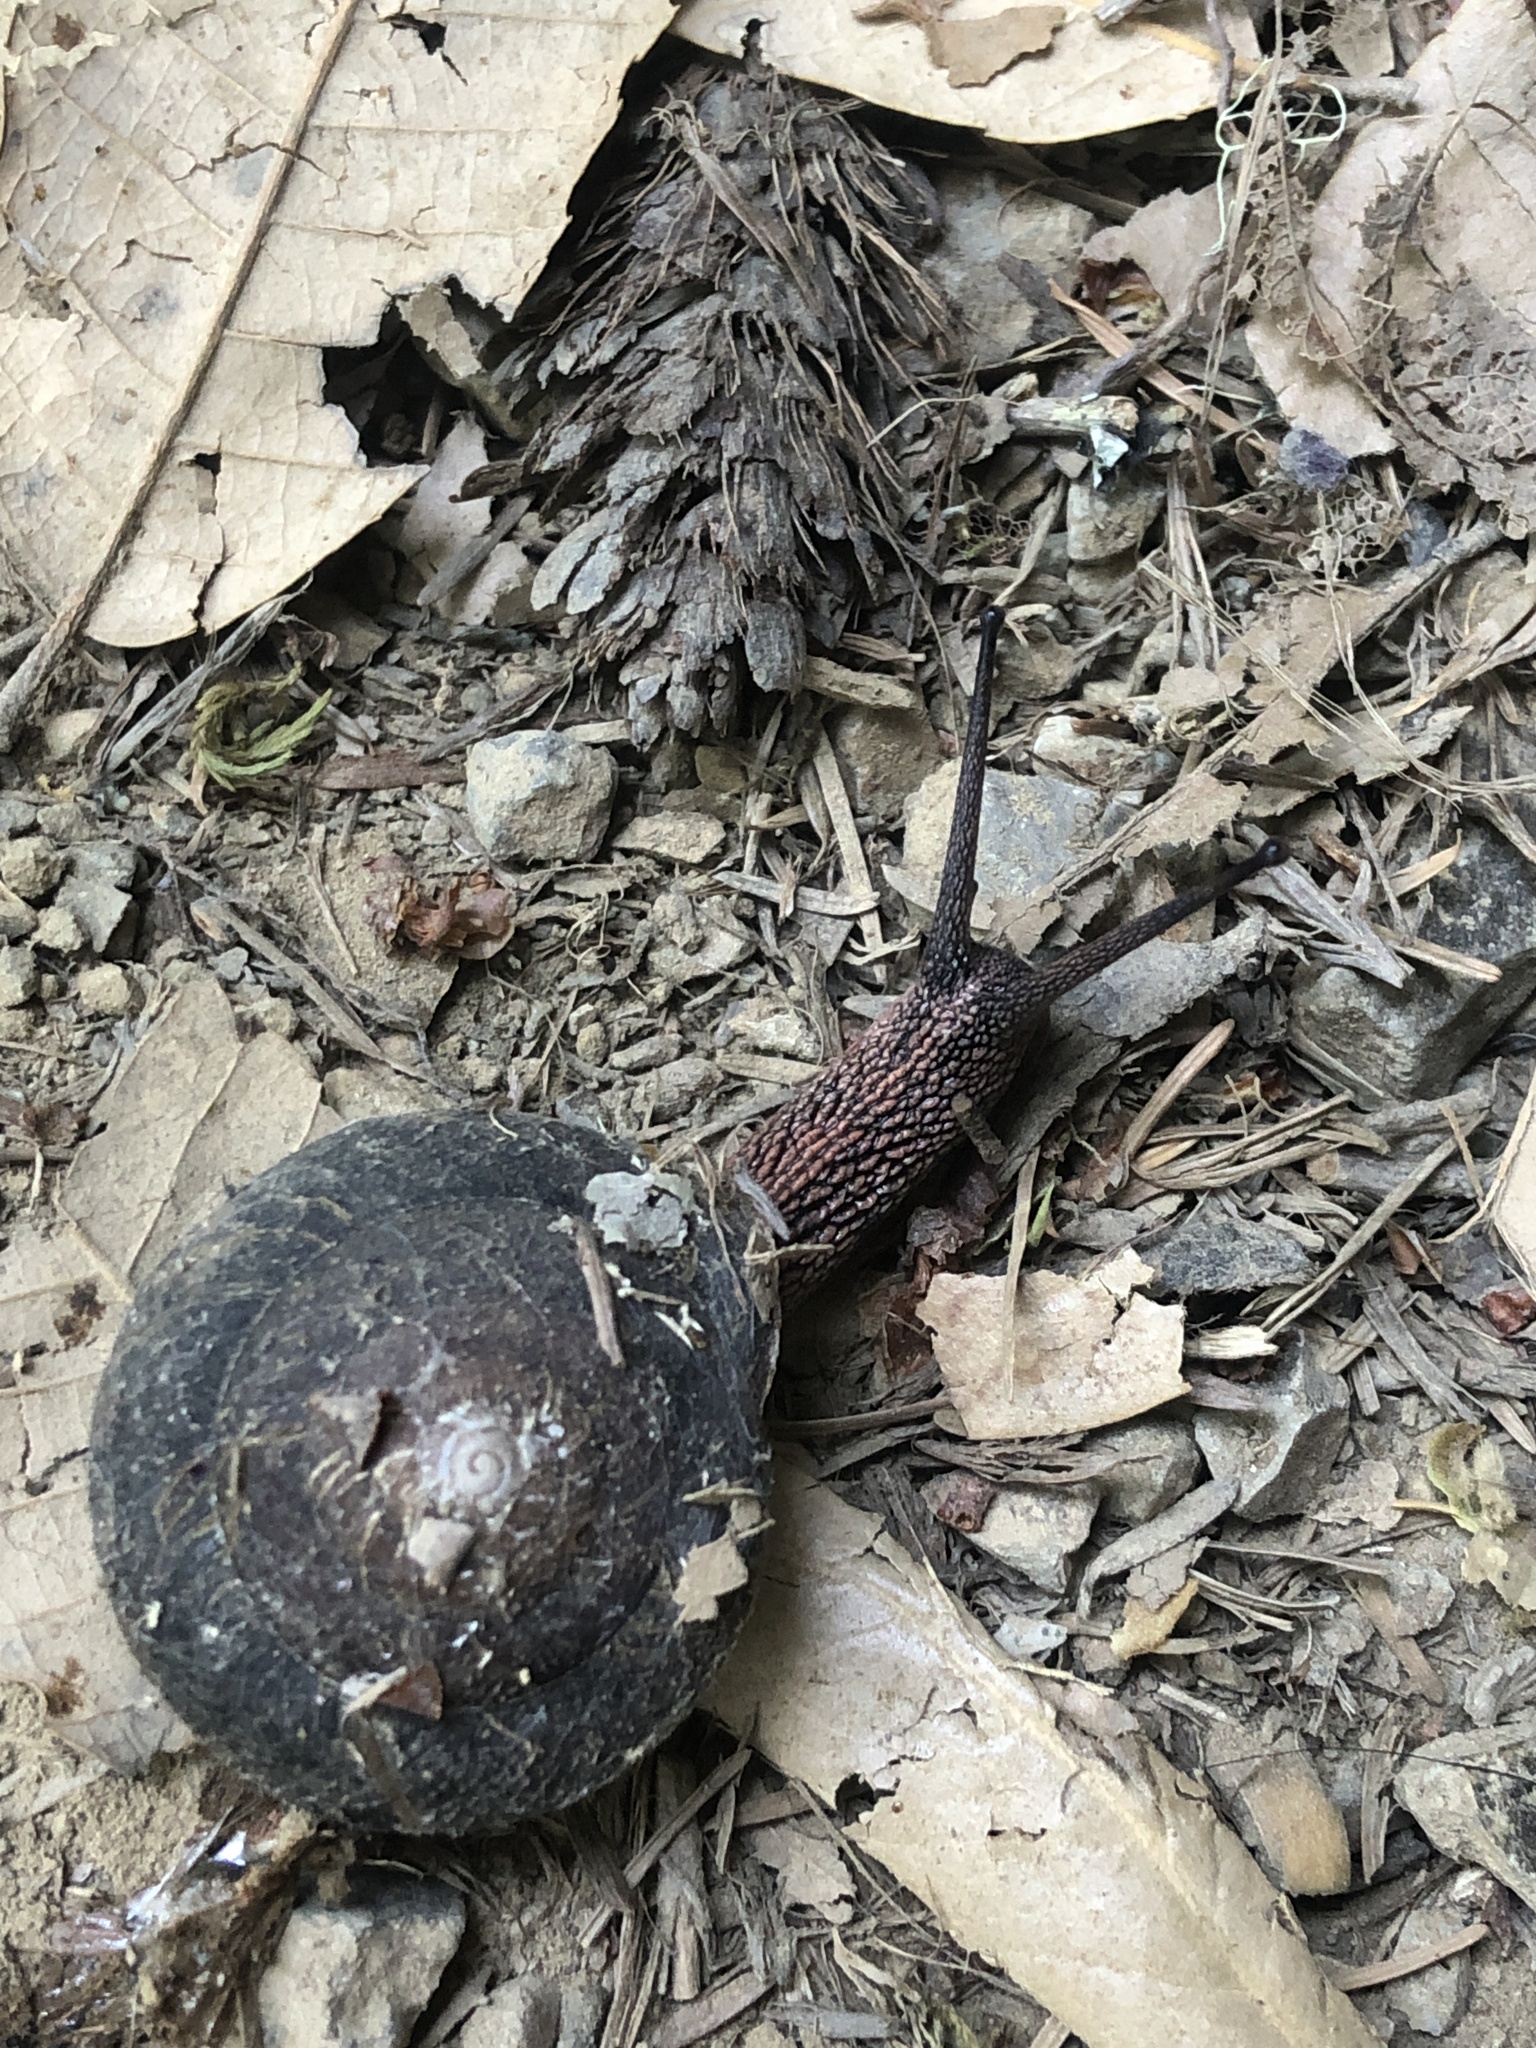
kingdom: Animalia
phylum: Mollusca
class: Gastropoda
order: Stylommatophora
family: Xanthonychidae
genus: Monadenia
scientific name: Monadenia infumata
